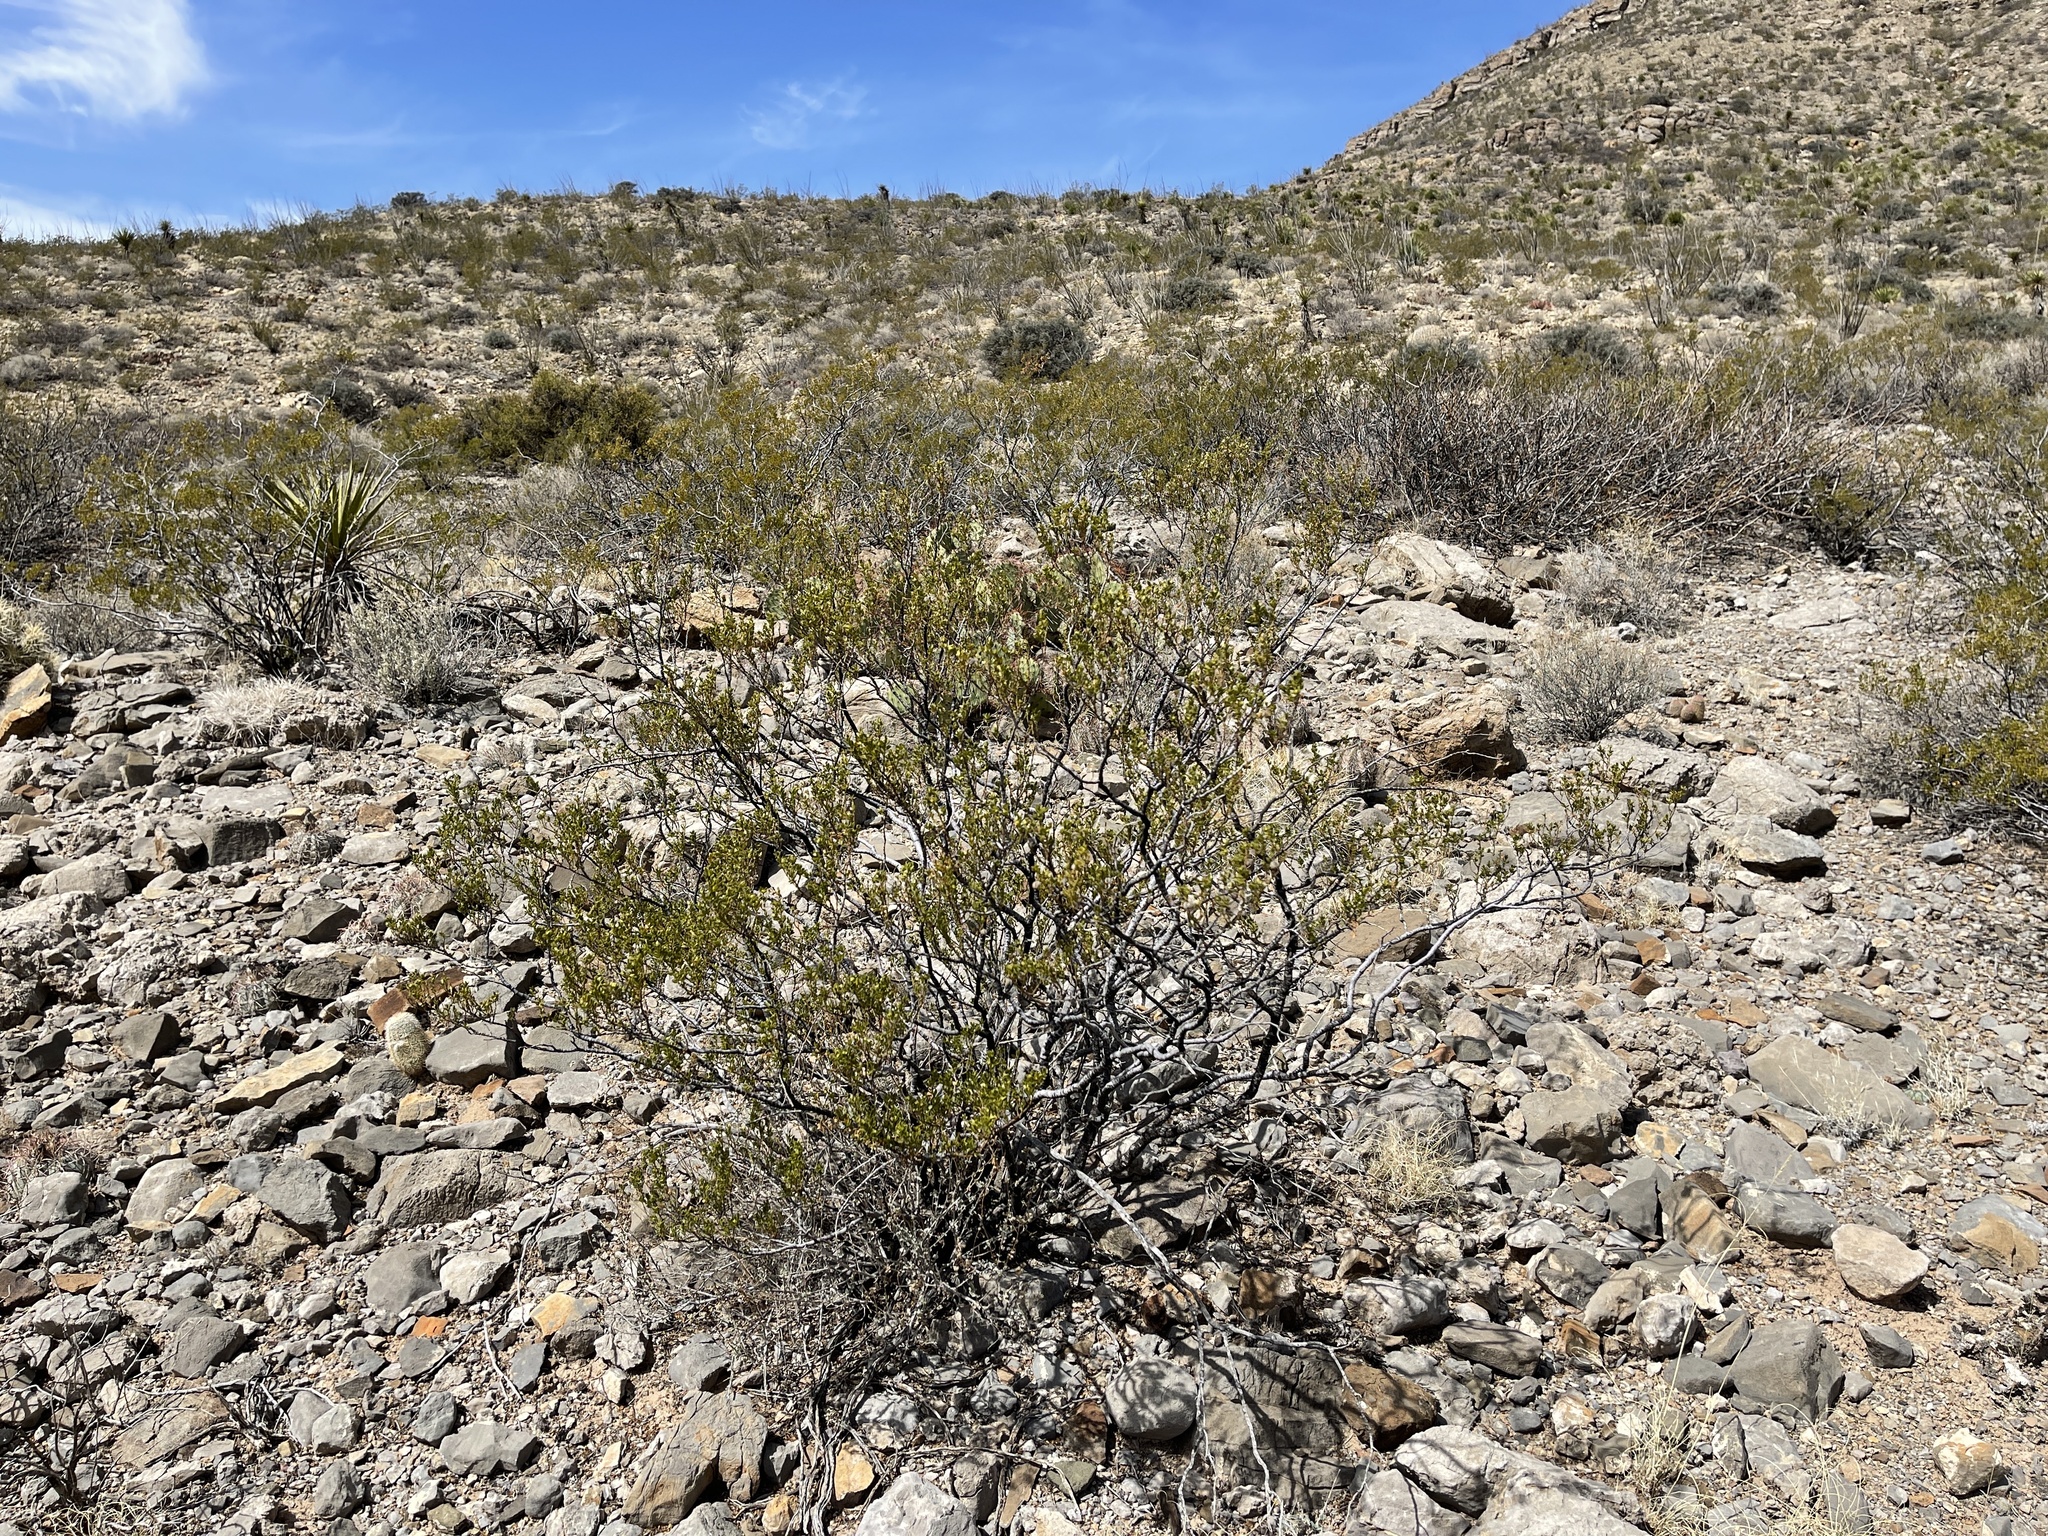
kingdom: Plantae
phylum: Tracheophyta
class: Magnoliopsida
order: Zygophyllales
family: Zygophyllaceae
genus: Larrea
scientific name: Larrea tridentata
